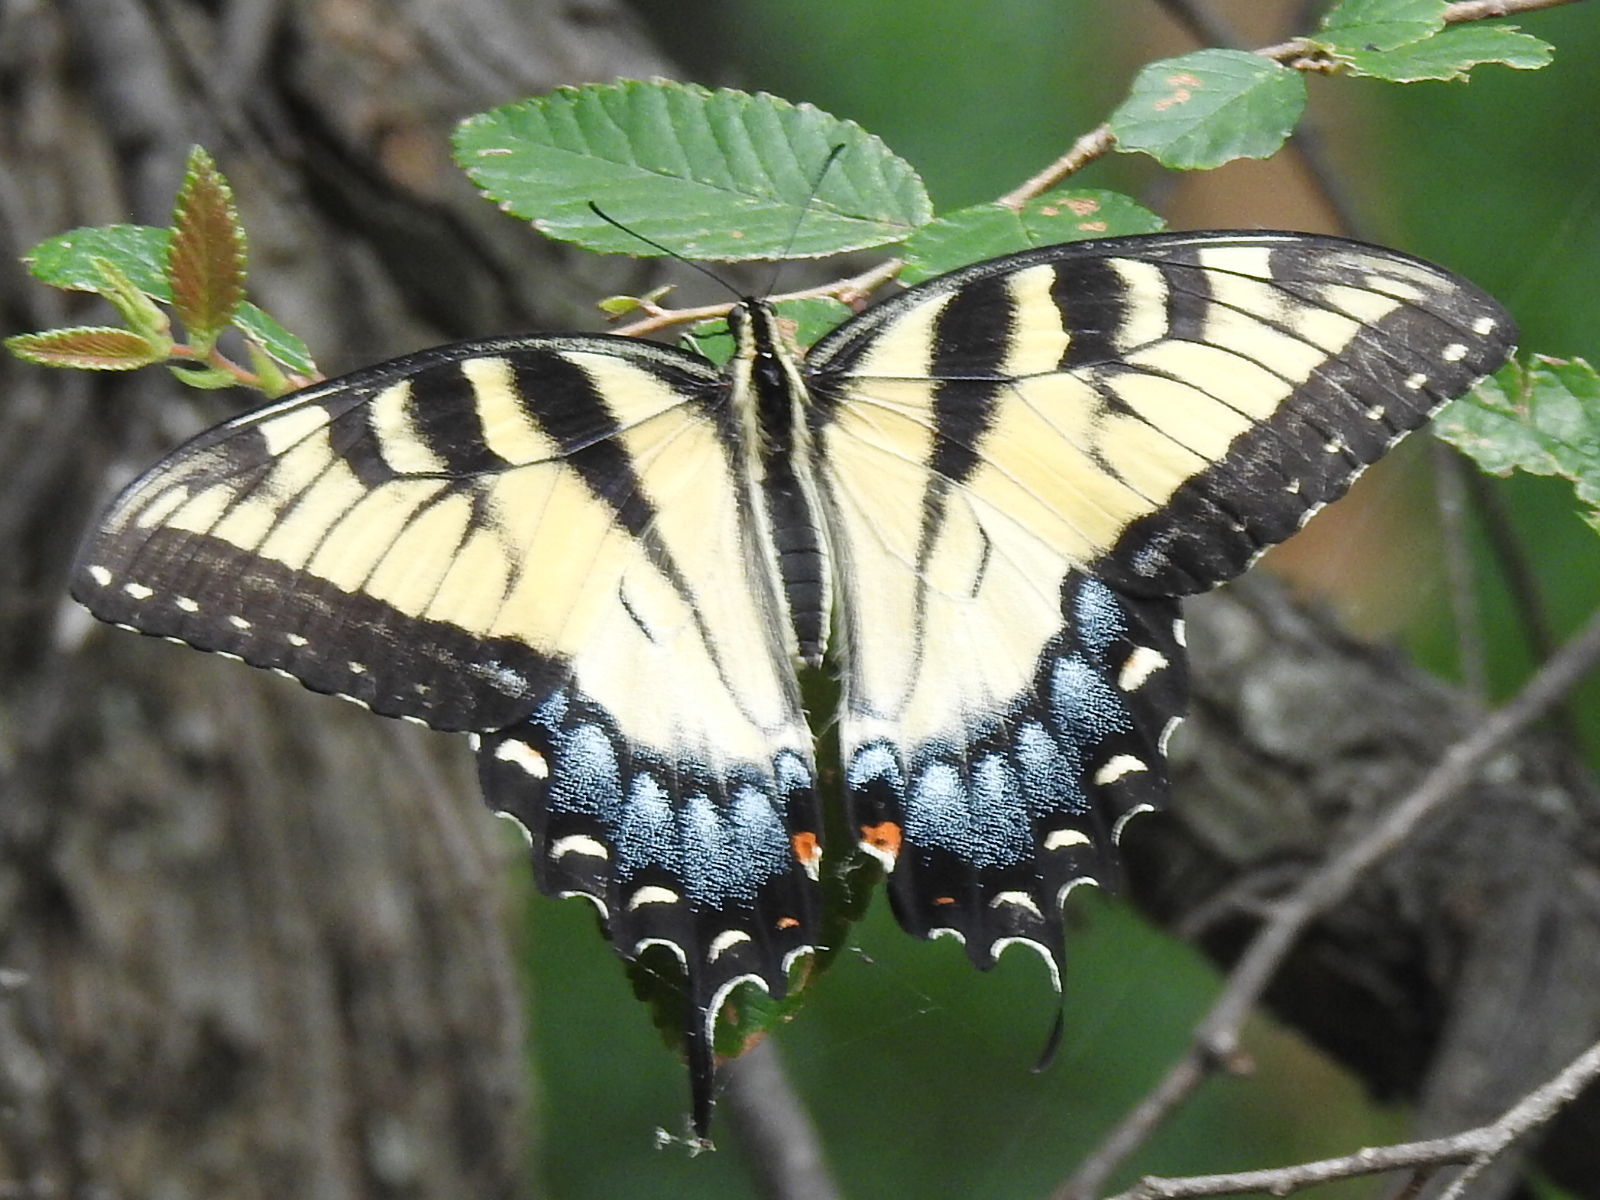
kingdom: Animalia
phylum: Arthropoda
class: Insecta
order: Lepidoptera
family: Papilionidae
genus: Papilio
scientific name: Papilio glaucus
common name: Tiger swallowtail
